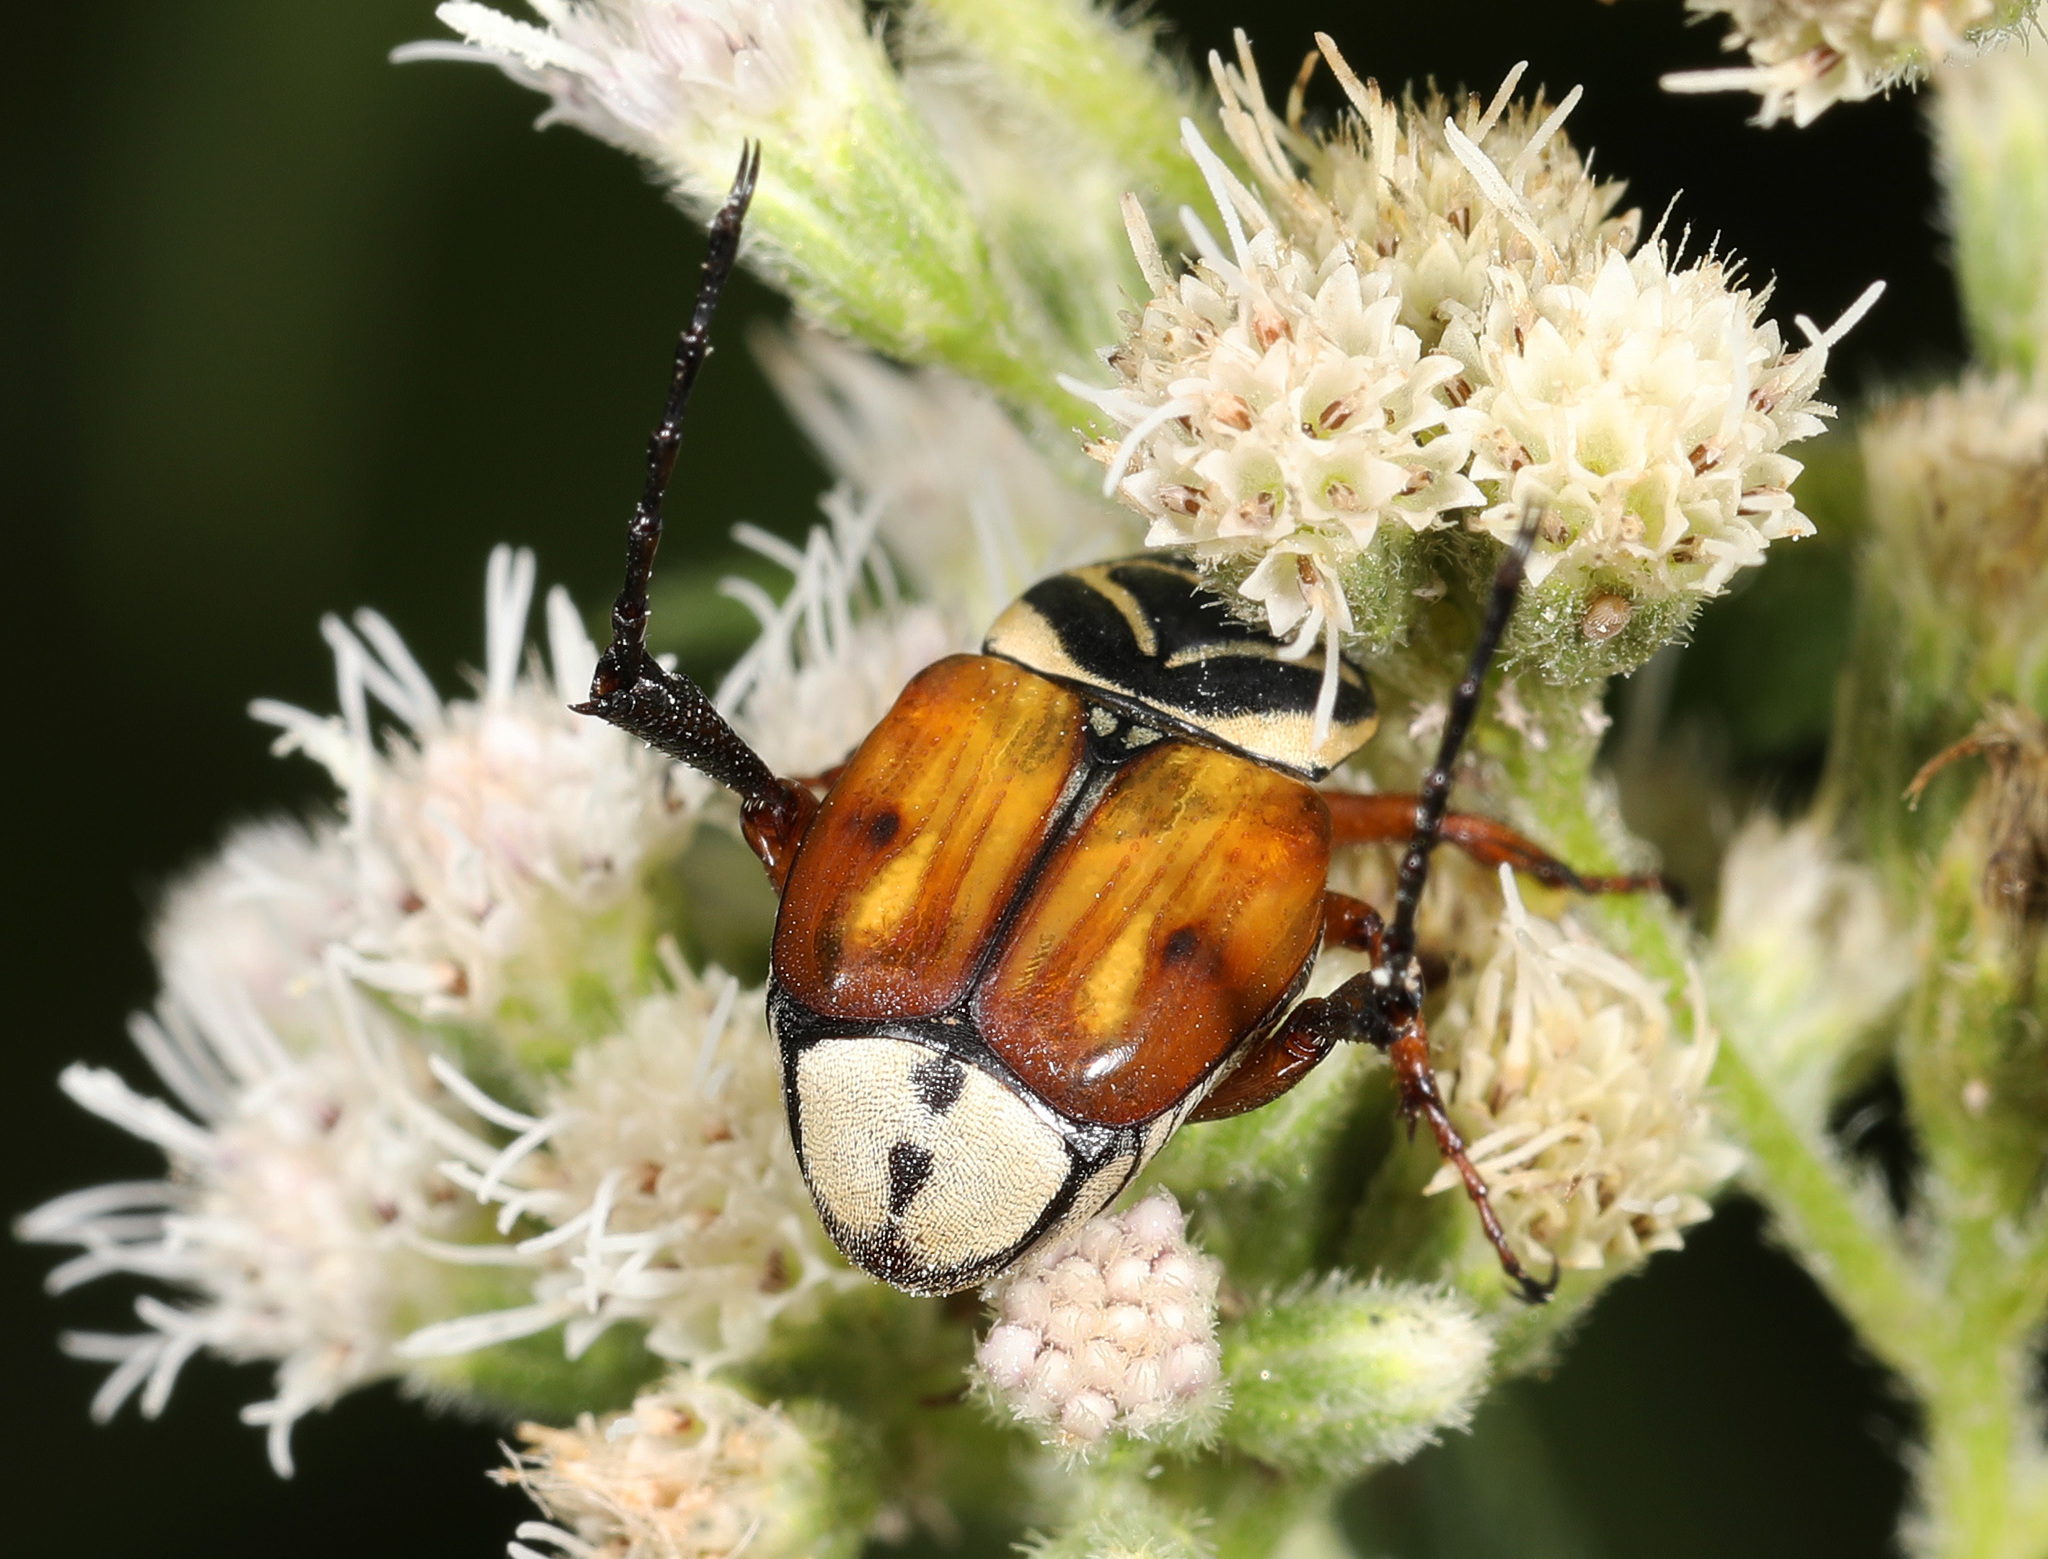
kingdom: Animalia
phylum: Arthropoda
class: Insecta
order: Coleoptera
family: Scarabaeidae
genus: Trigonopeltastes
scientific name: Trigonopeltastes delta
